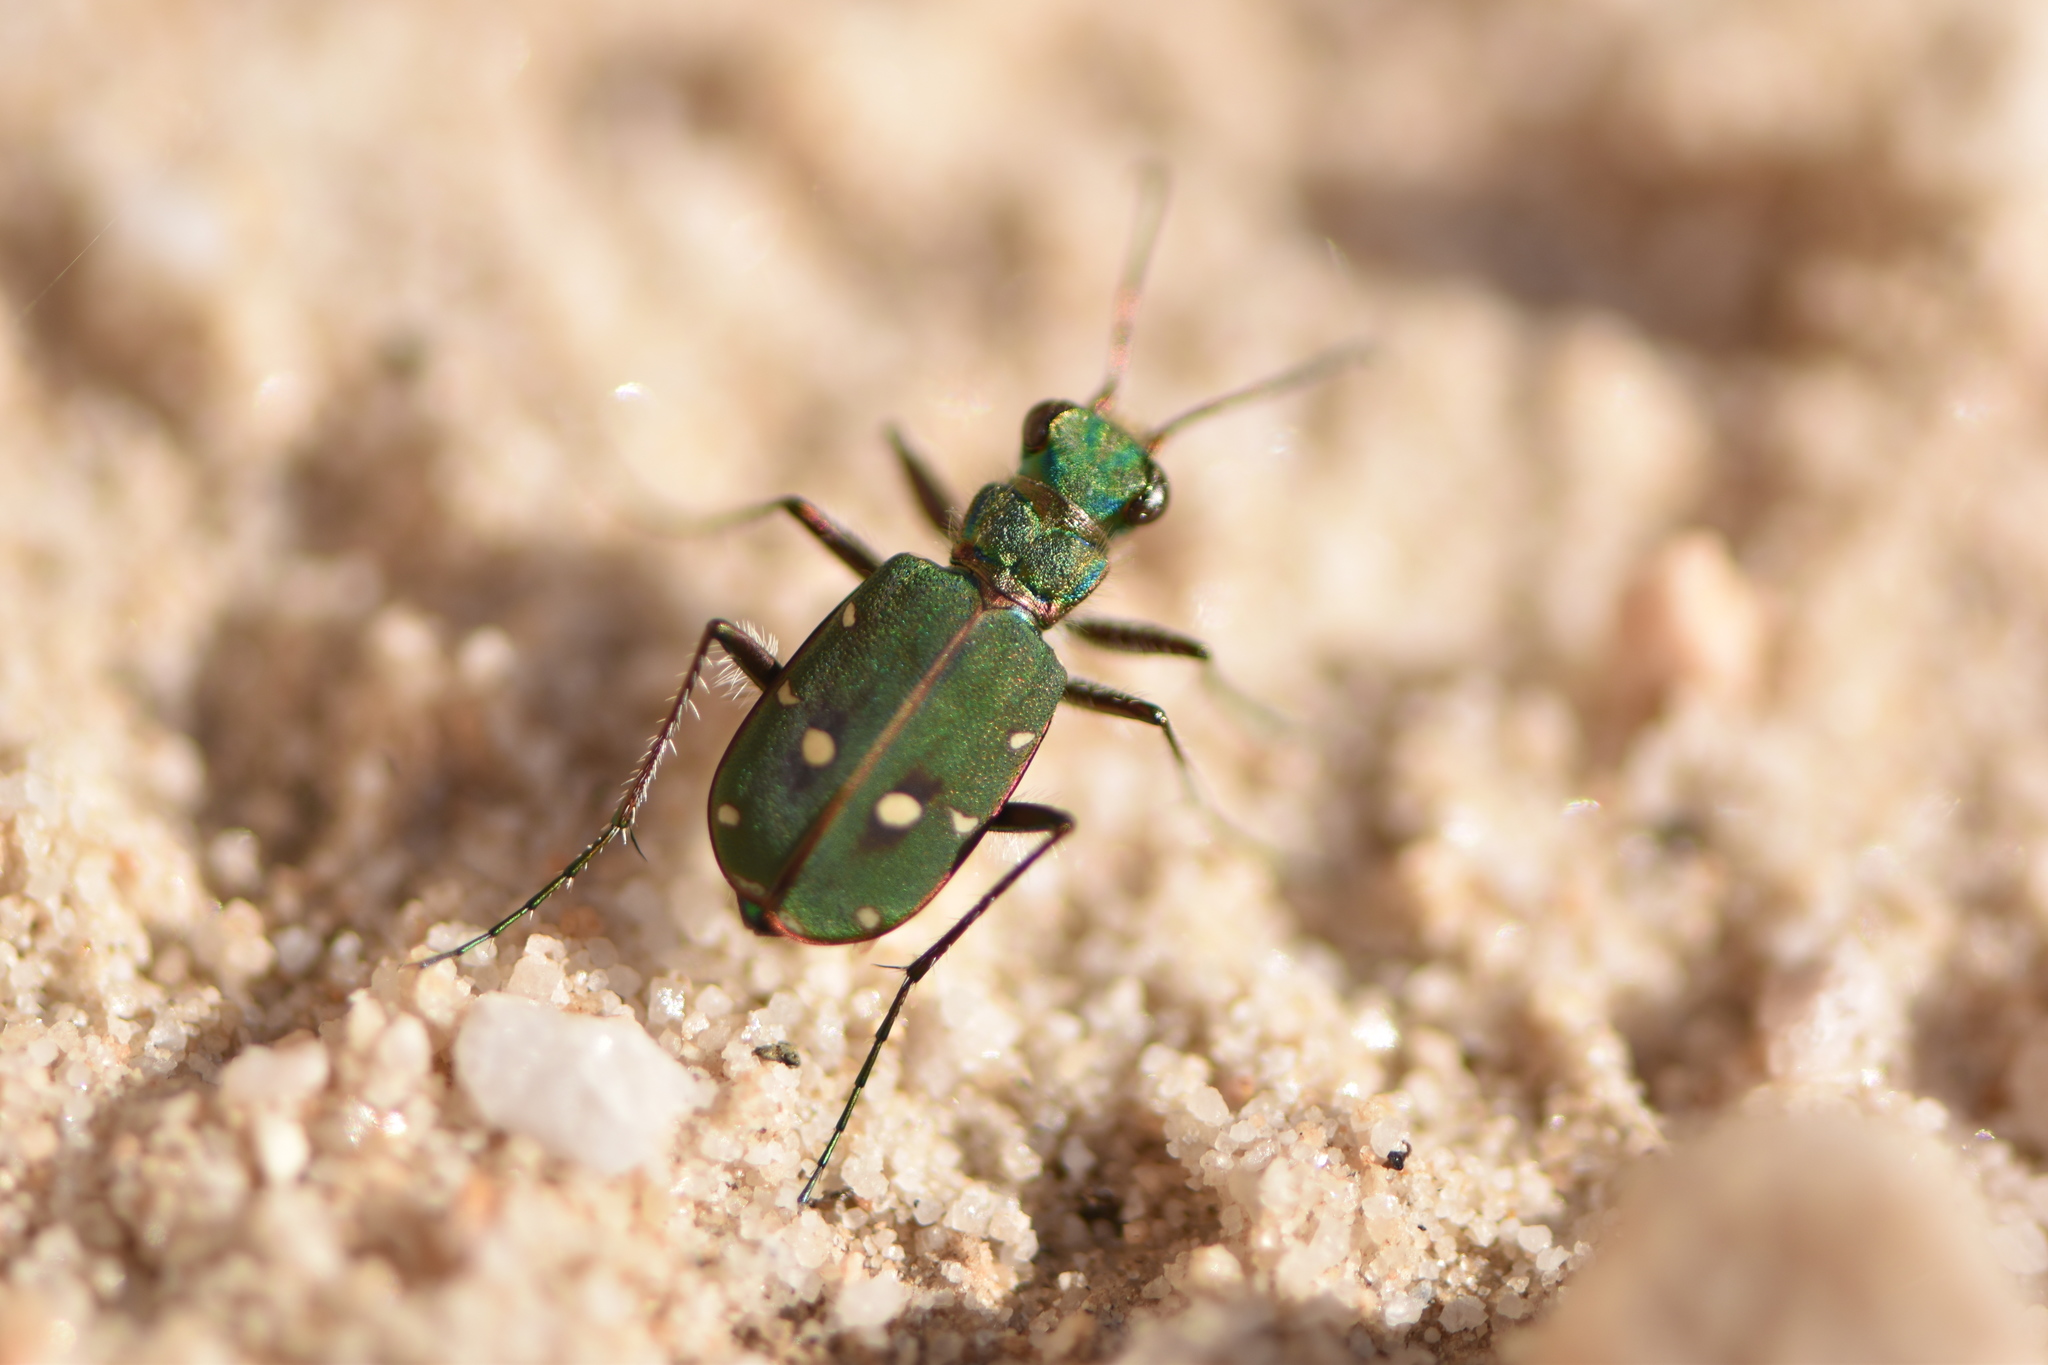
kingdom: Animalia
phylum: Arthropoda
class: Insecta
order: Coleoptera
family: Carabidae
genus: Cicindela
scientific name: Cicindela campestris
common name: Common tiger beetle
